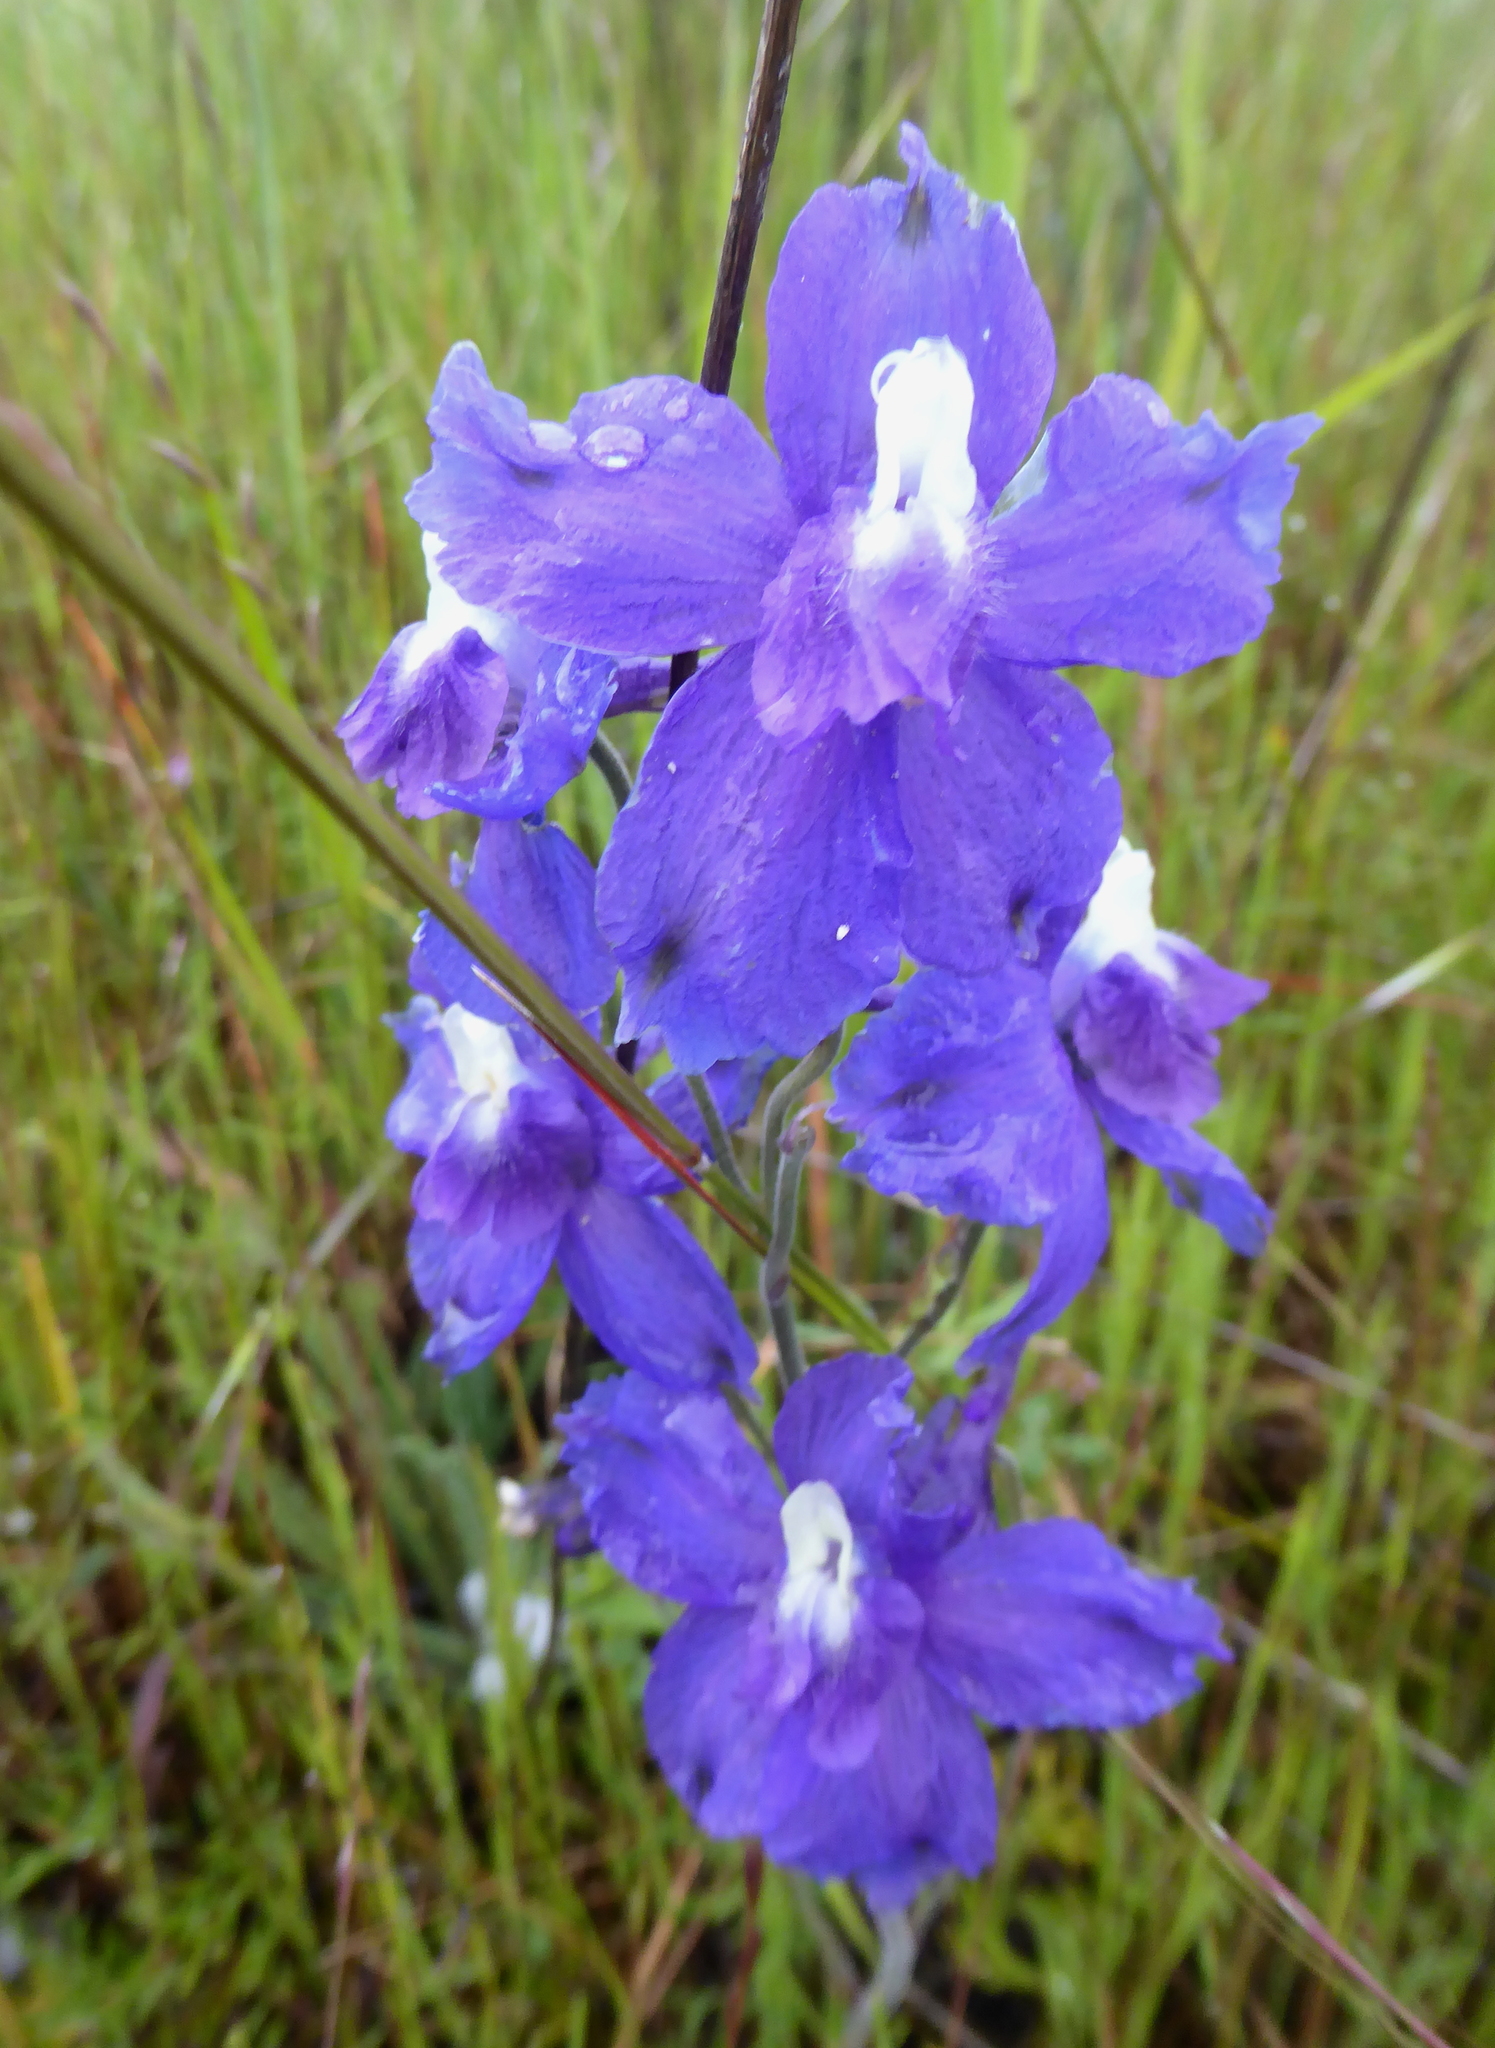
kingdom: Plantae
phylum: Tracheophyta
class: Magnoliopsida
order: Ranunculales
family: Ranunculaceae
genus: Delphinium
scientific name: Delphinium variegatum
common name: Royal larkspur
